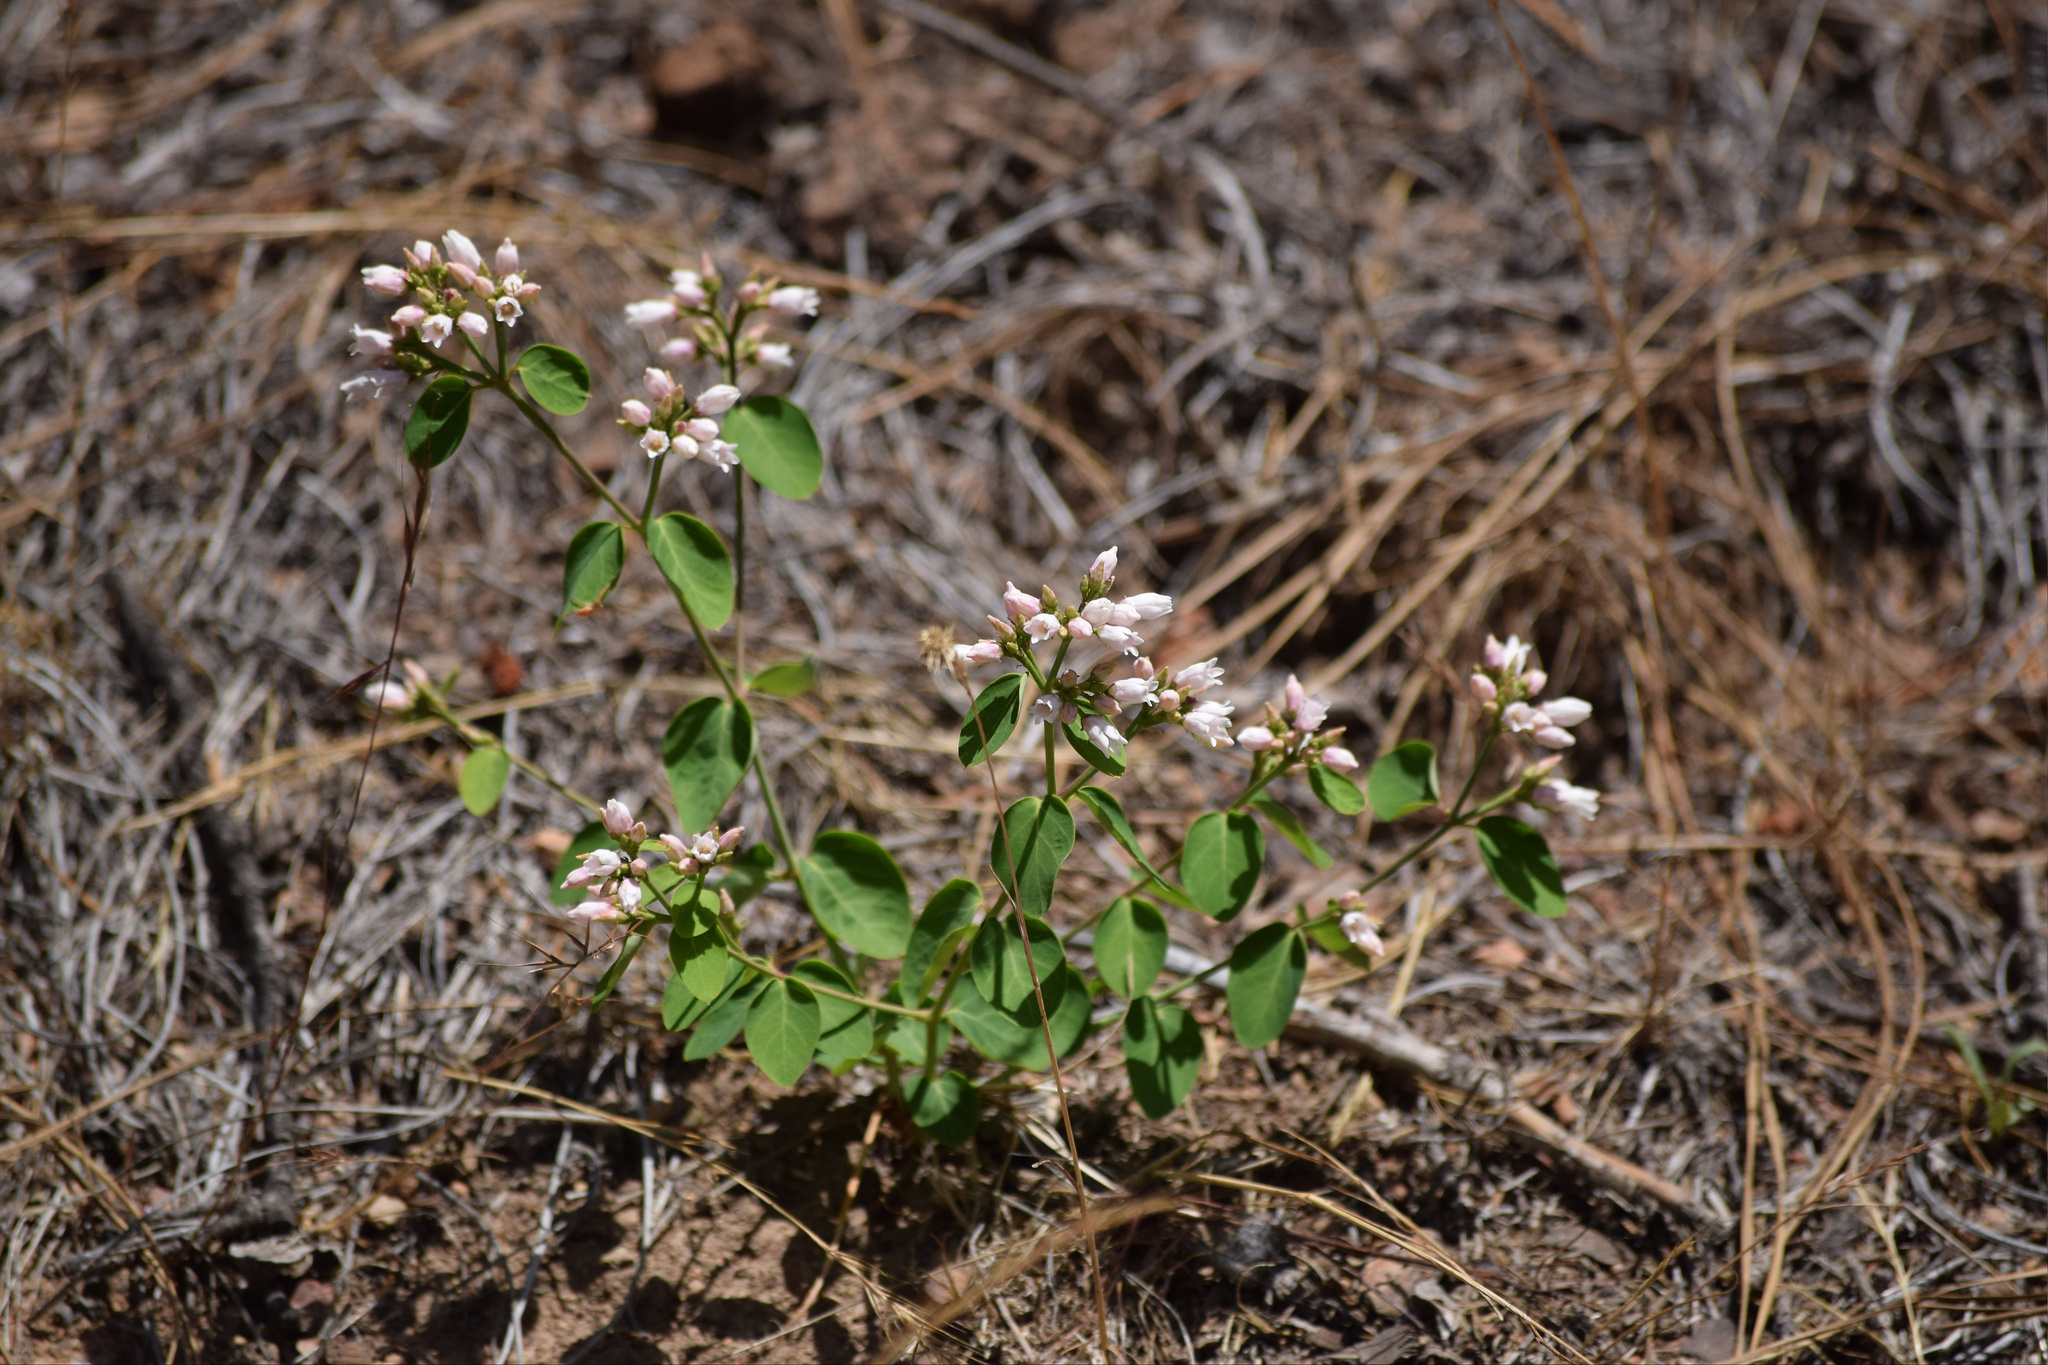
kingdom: Plantae
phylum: Tracheophyta
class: Magnoliopsida
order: Gentianales
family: Apocynaceae
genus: Apocynum
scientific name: Apocynum androsaemifolium
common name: Spreading dogbane
